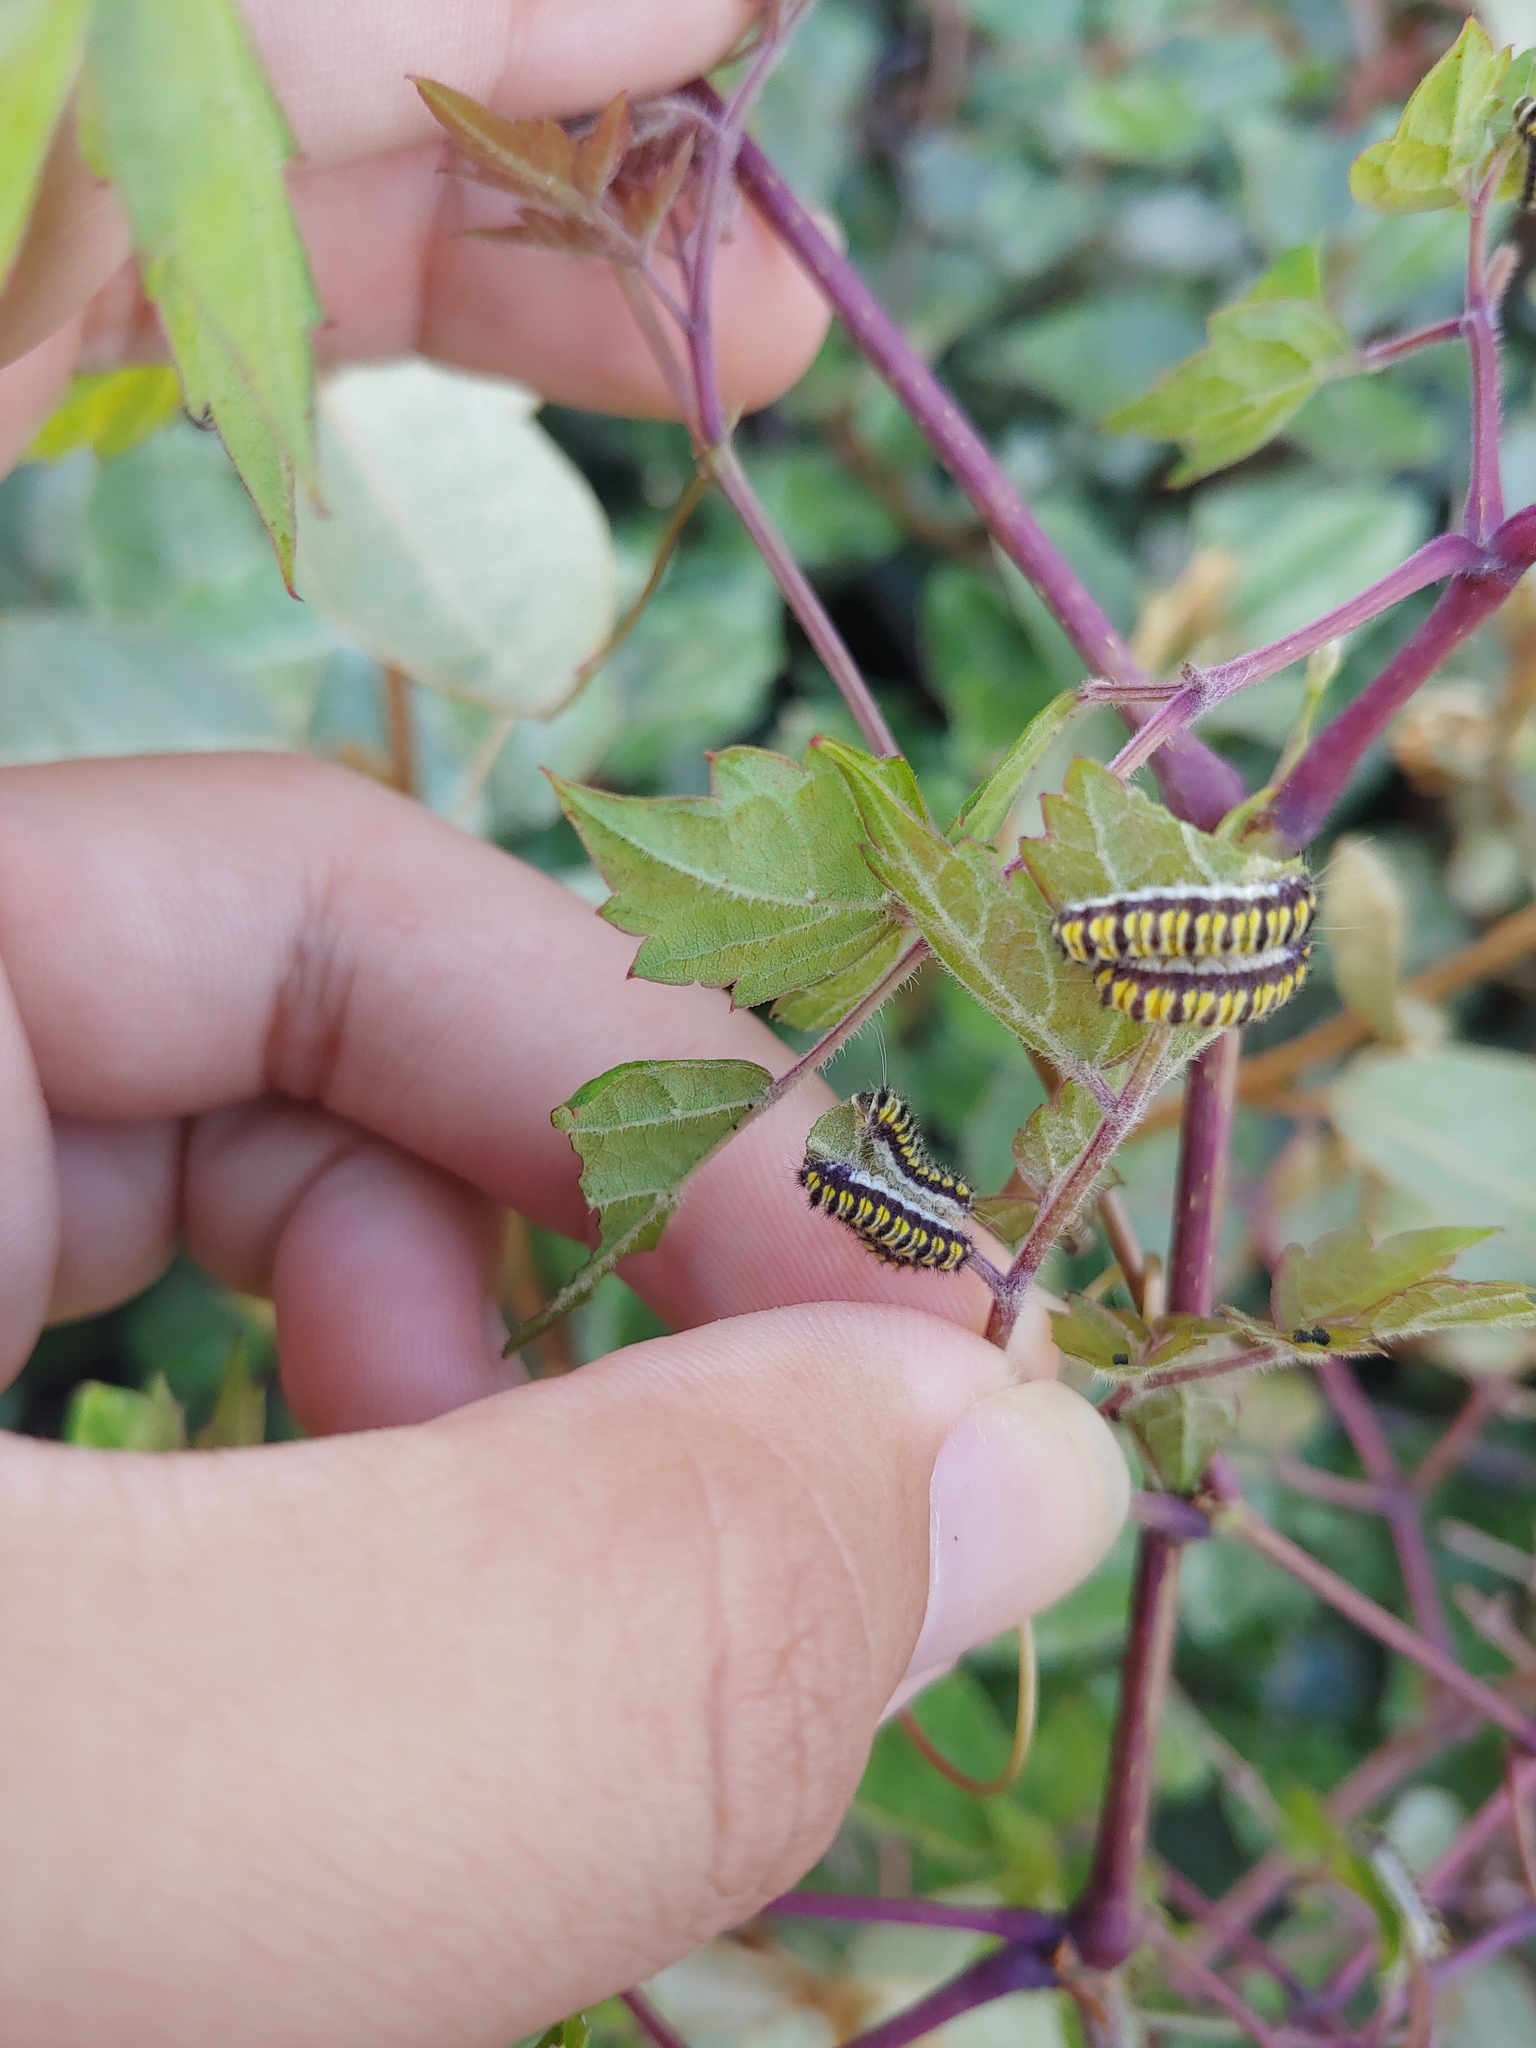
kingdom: Animalia
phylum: Arthropoda
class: Insecta
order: Lepidoptera
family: Zygaenidae
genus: Harrisina
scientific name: Harrisina americana
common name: Grapeleaf skeletonizer moth
